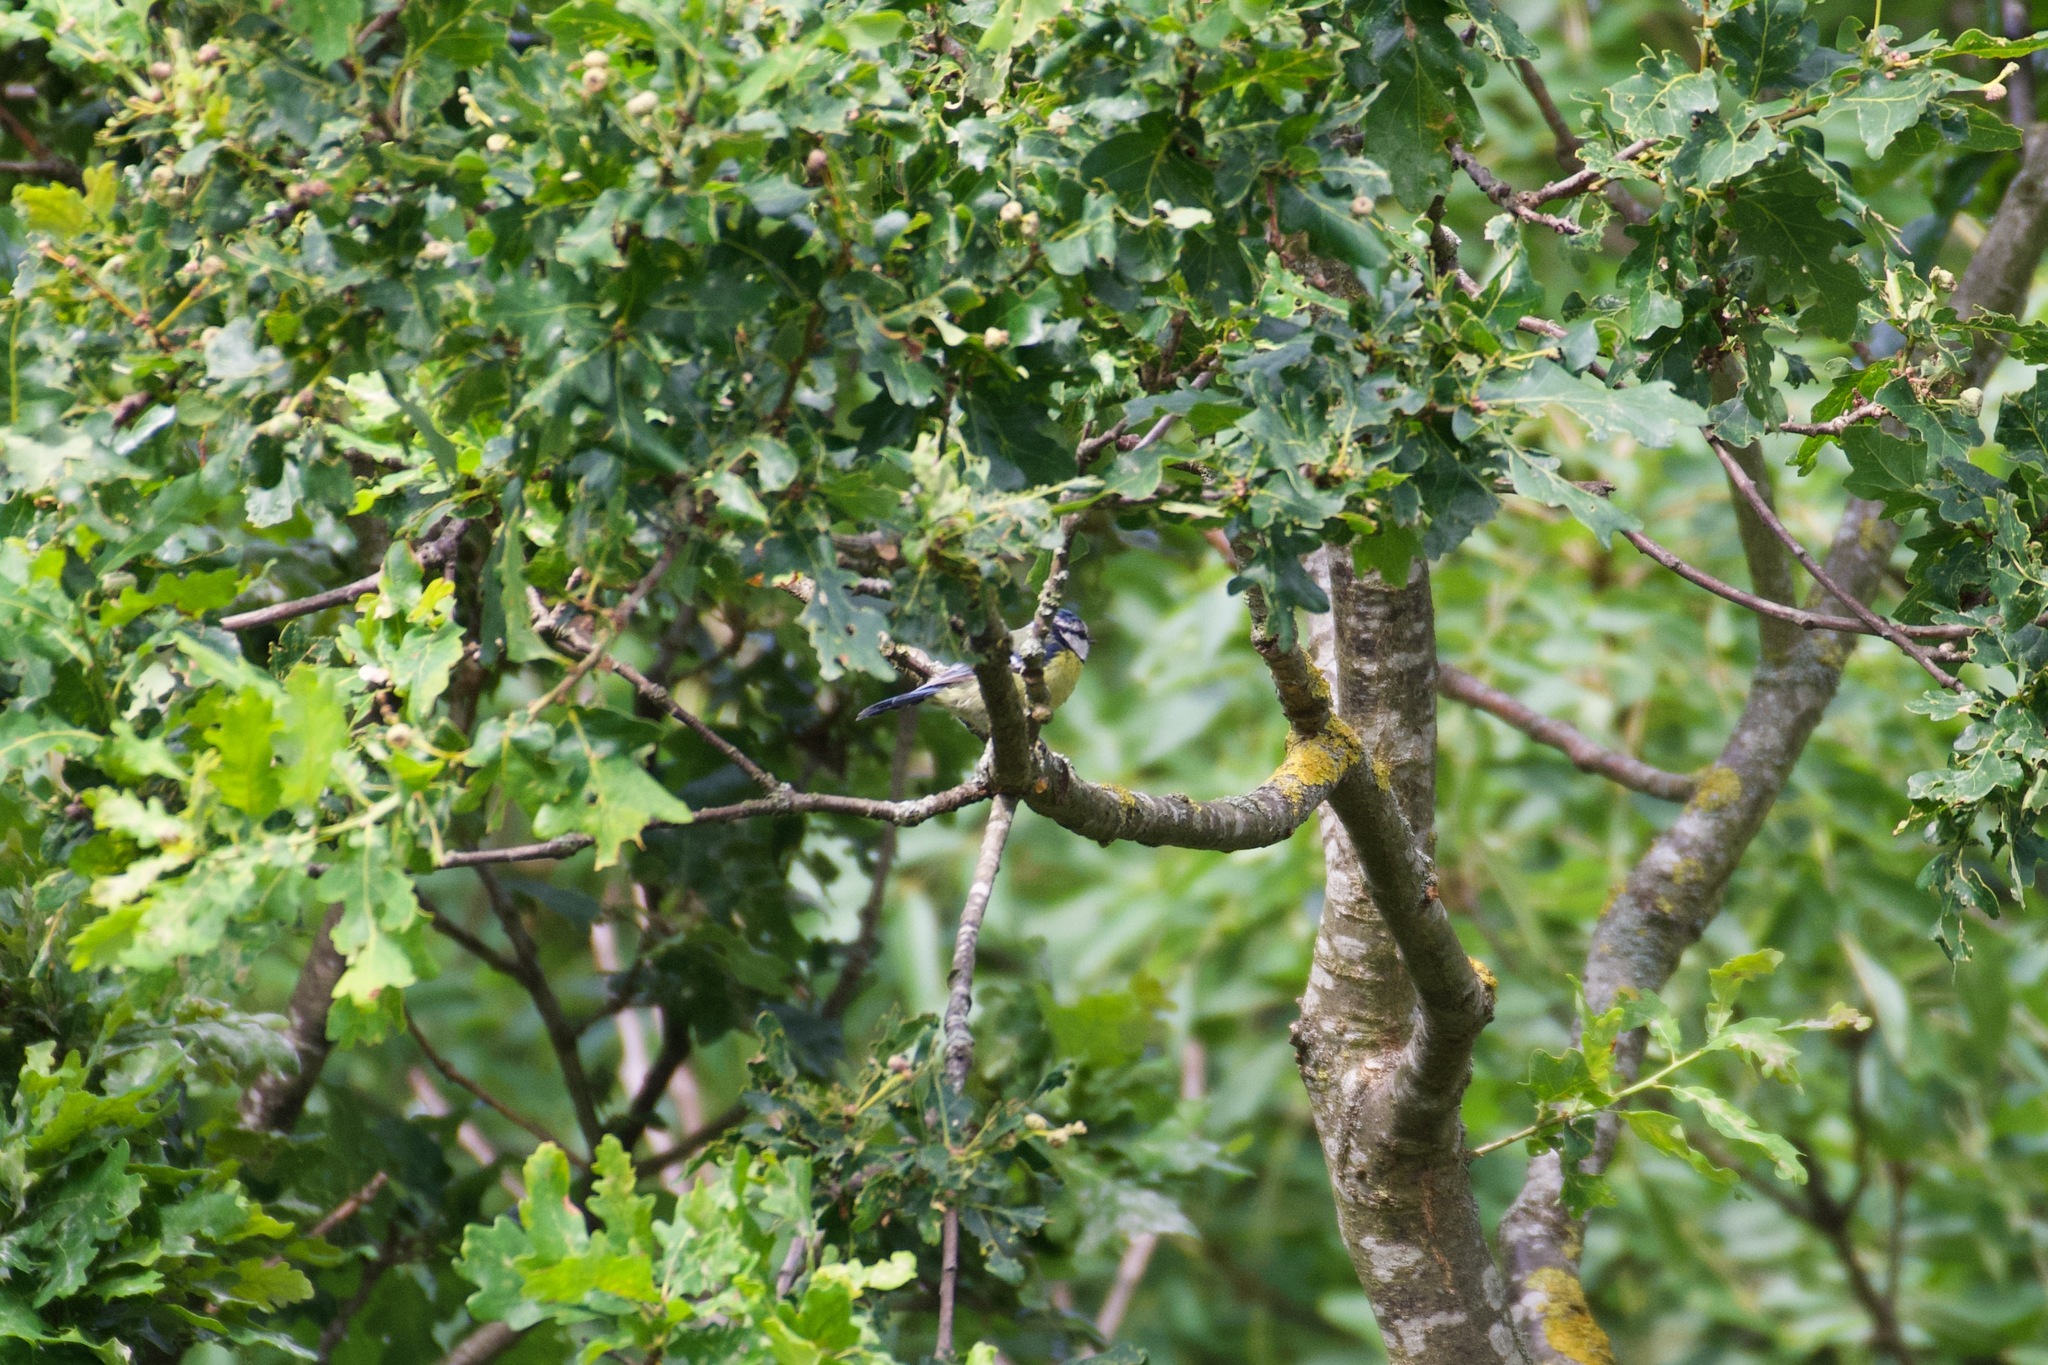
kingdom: Animalia
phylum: Chordata
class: Aves
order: Passeriformes
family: Paridae
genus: Cyanistes
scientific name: Cyanistes caeruleus
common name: Eurasian blue tit
